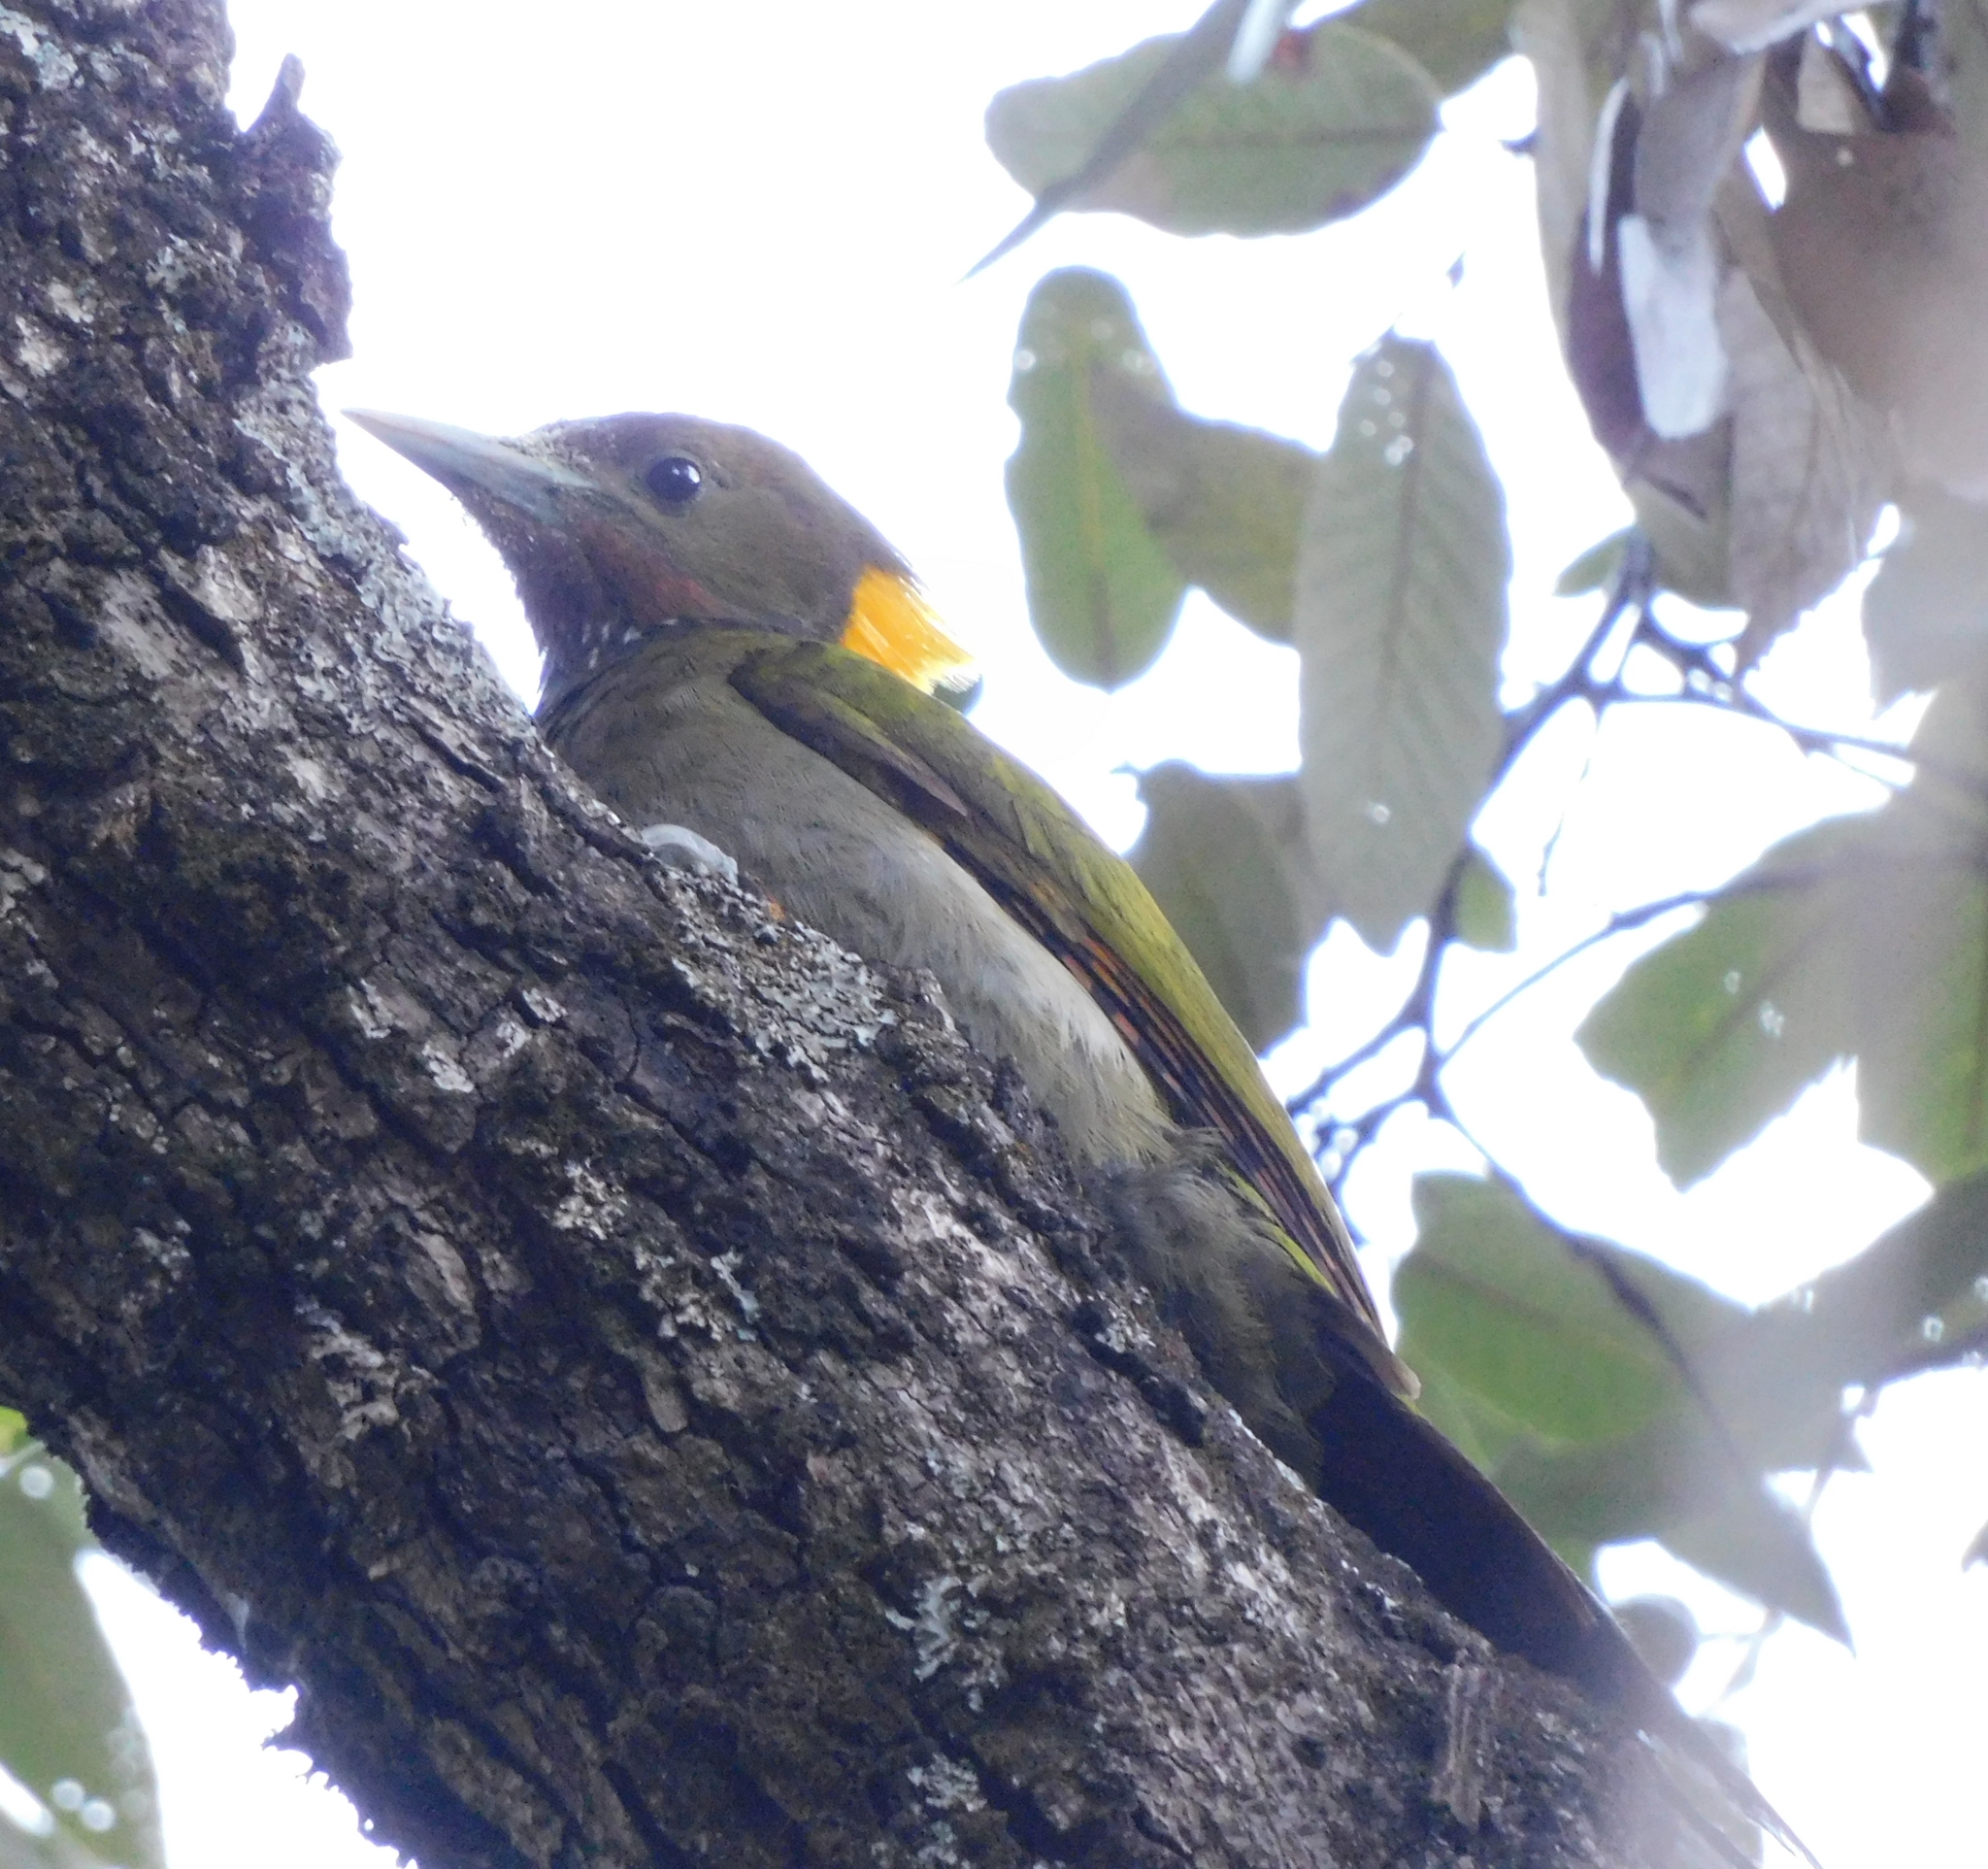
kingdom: Animalia
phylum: Chordata
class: Aves
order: Piciformes
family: Picidae
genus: Chrysophlegma
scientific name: Chrysophlegma flavinucha
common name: Greater yellownape
